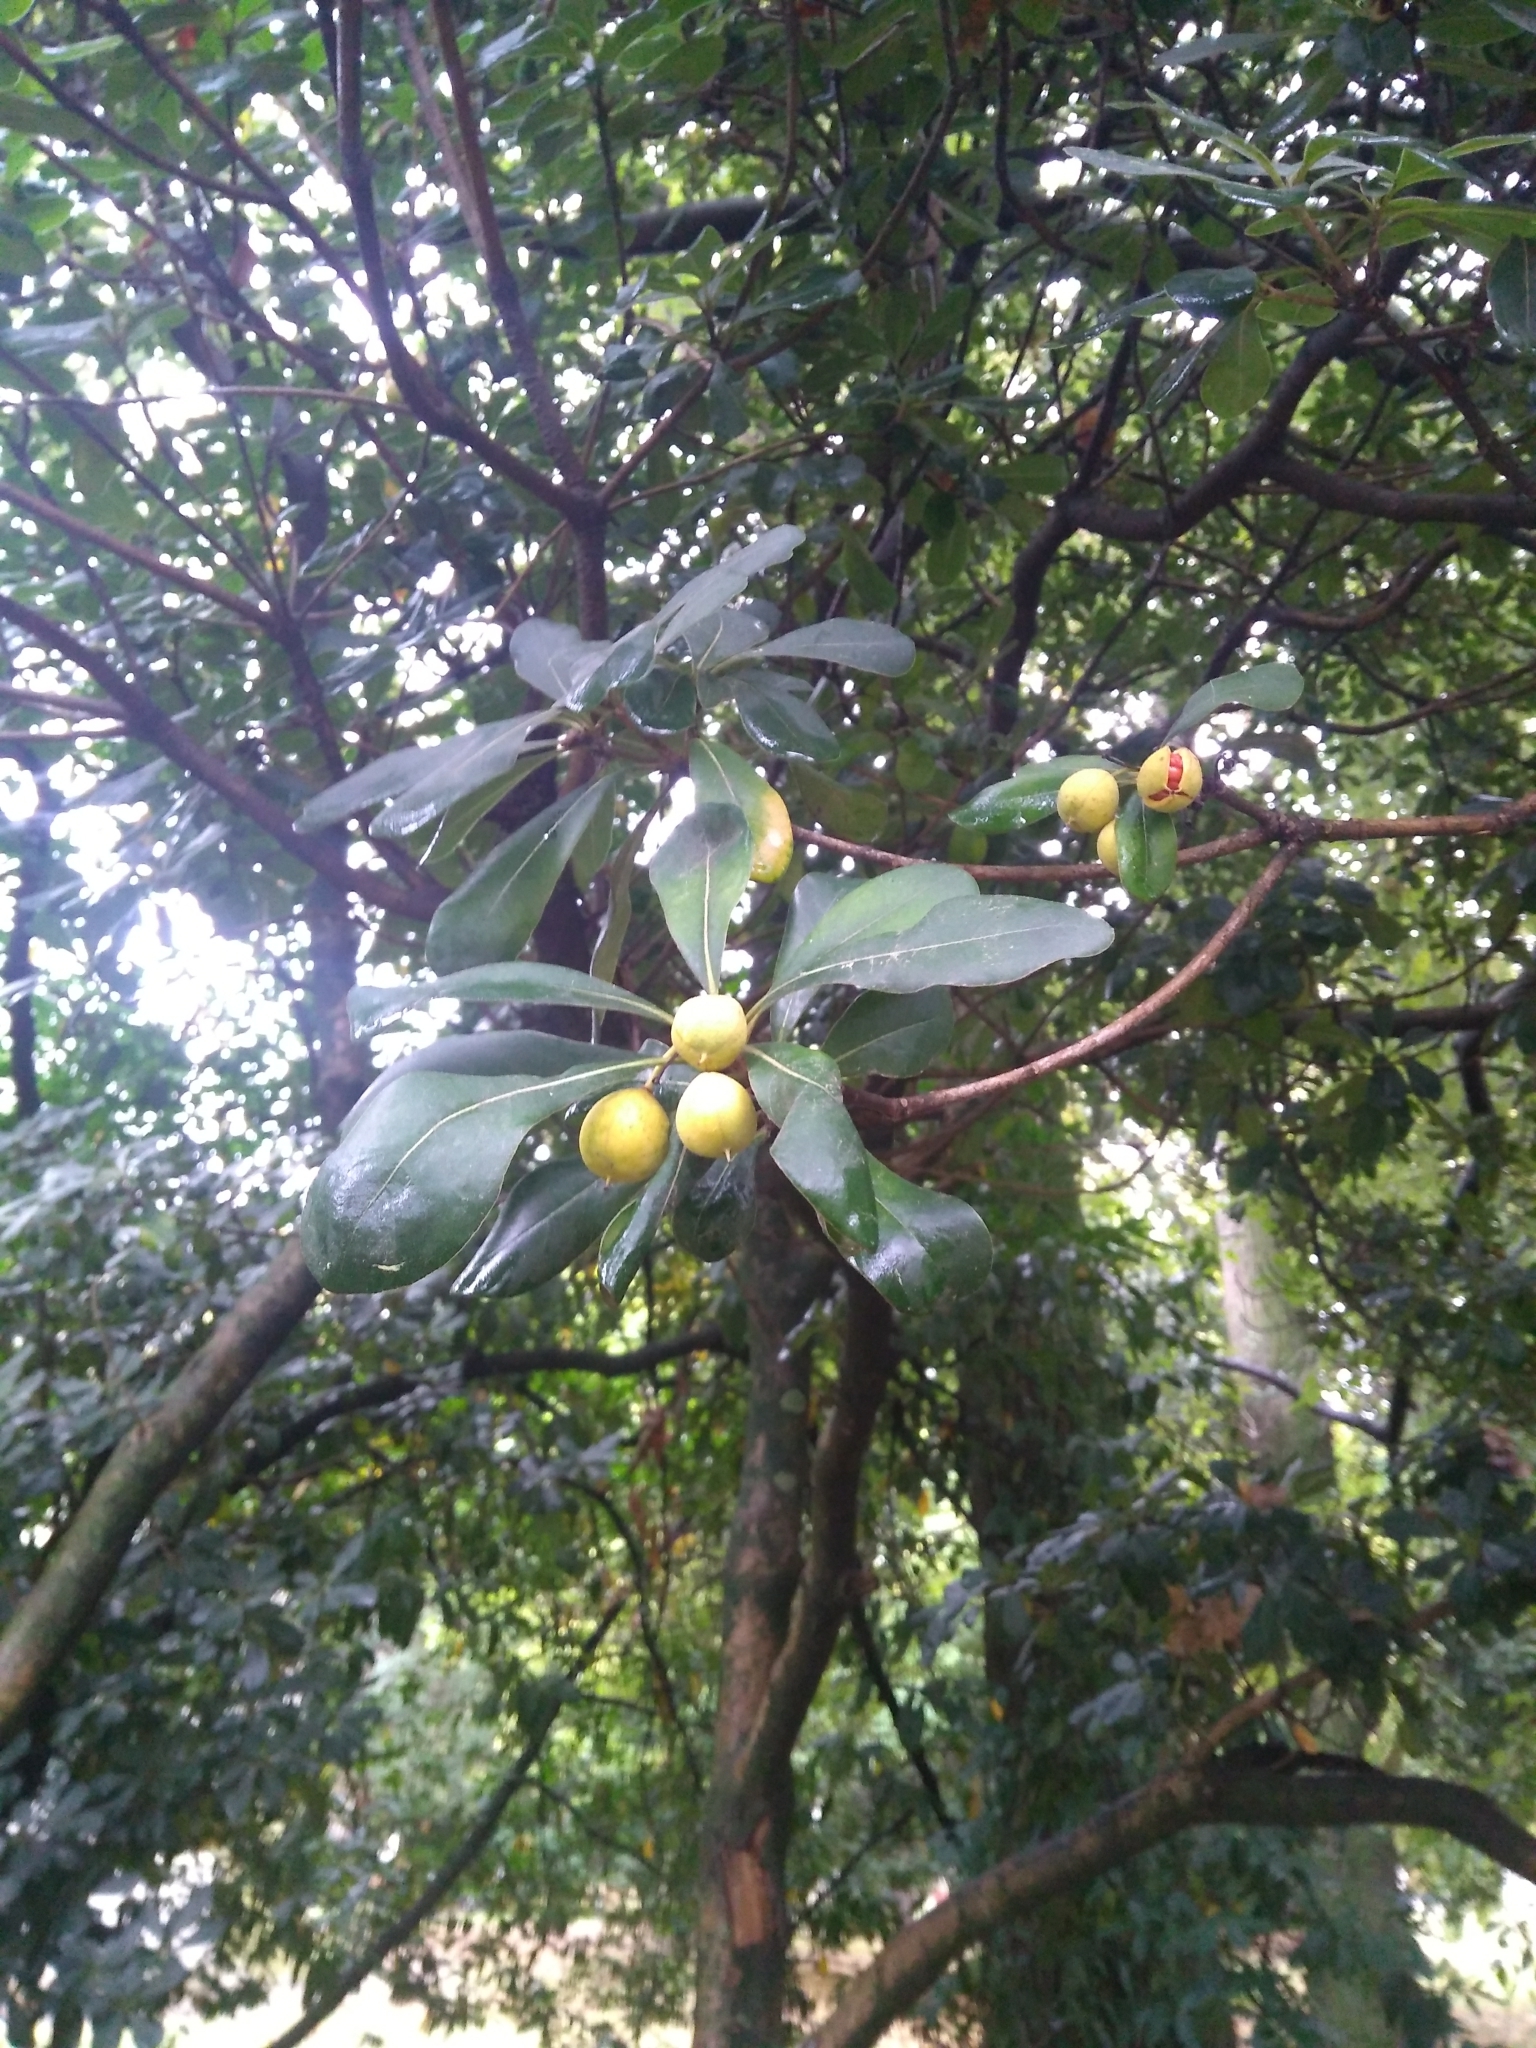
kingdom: Plantae
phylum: Tracheophyta
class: Magnoliopsida
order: Apiales
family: Pittosporaceae
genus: Pittosporum
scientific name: Pittosporum tobira
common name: Japanese cheesewood
